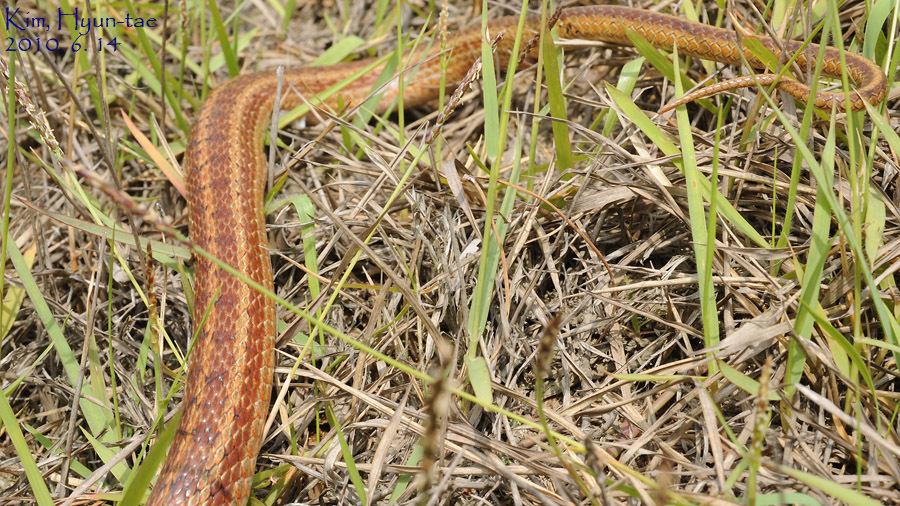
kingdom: Animalia
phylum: Chordata
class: Squamata
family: Colubridae
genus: Elaphe
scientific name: Elaphe dione
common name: Dione ratsnake
